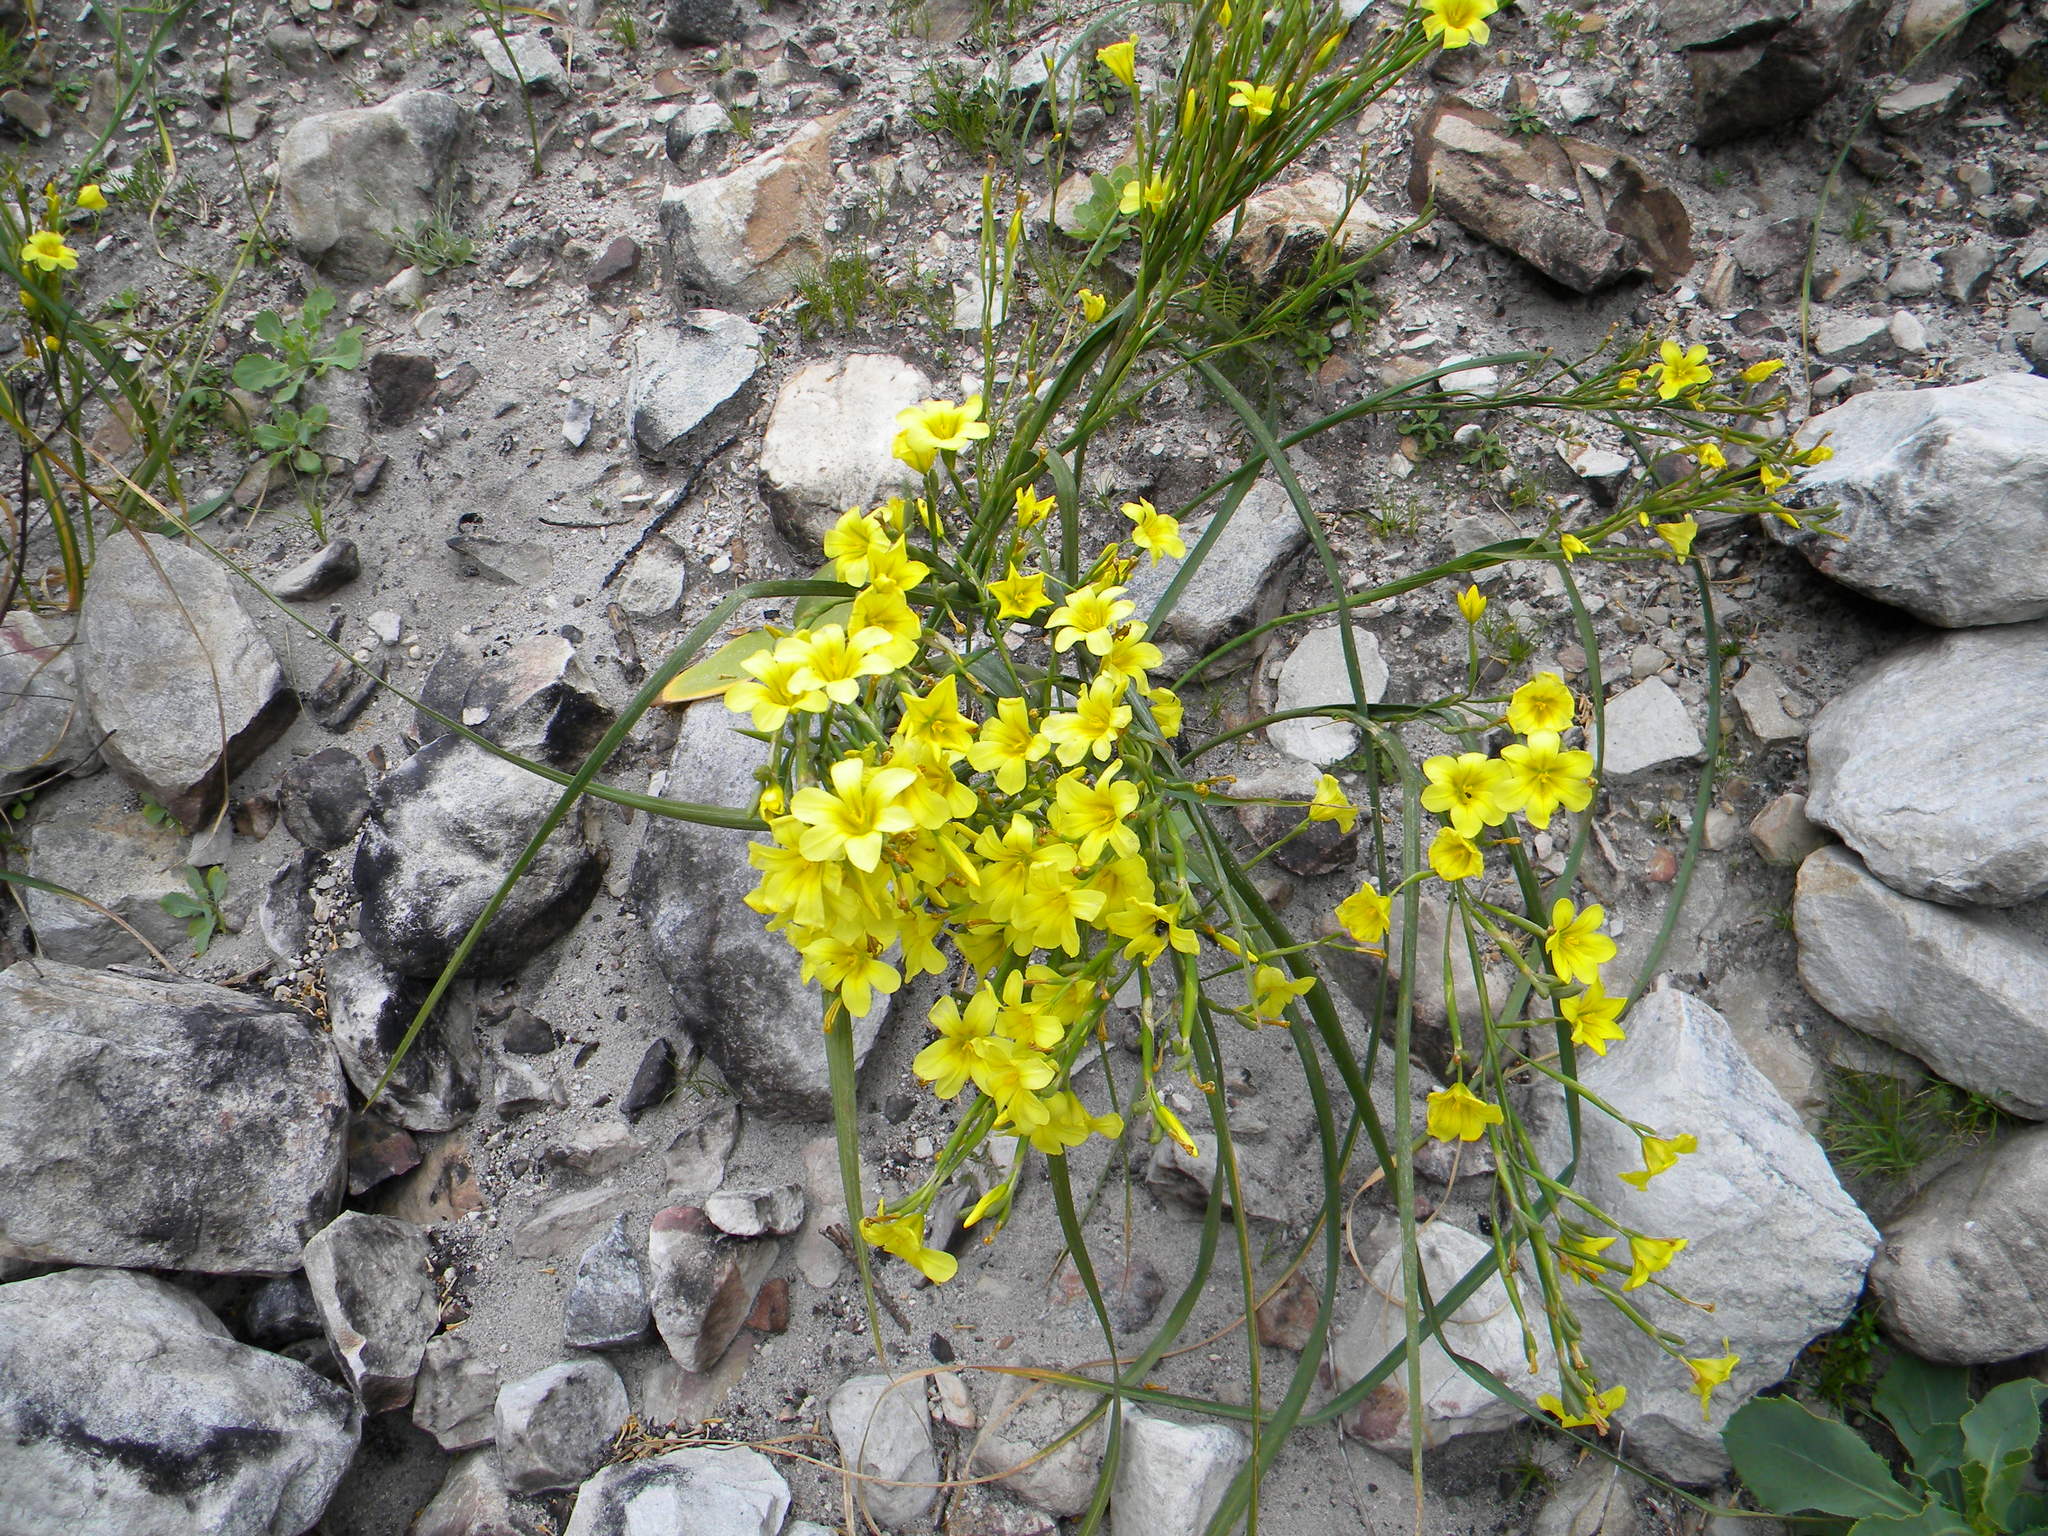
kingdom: Plantae
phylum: Tracheophyta
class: Liliopsida
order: Asparagales
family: Iridaceae
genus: Moraea
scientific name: Moraea ochroleuca
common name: Red tulp
